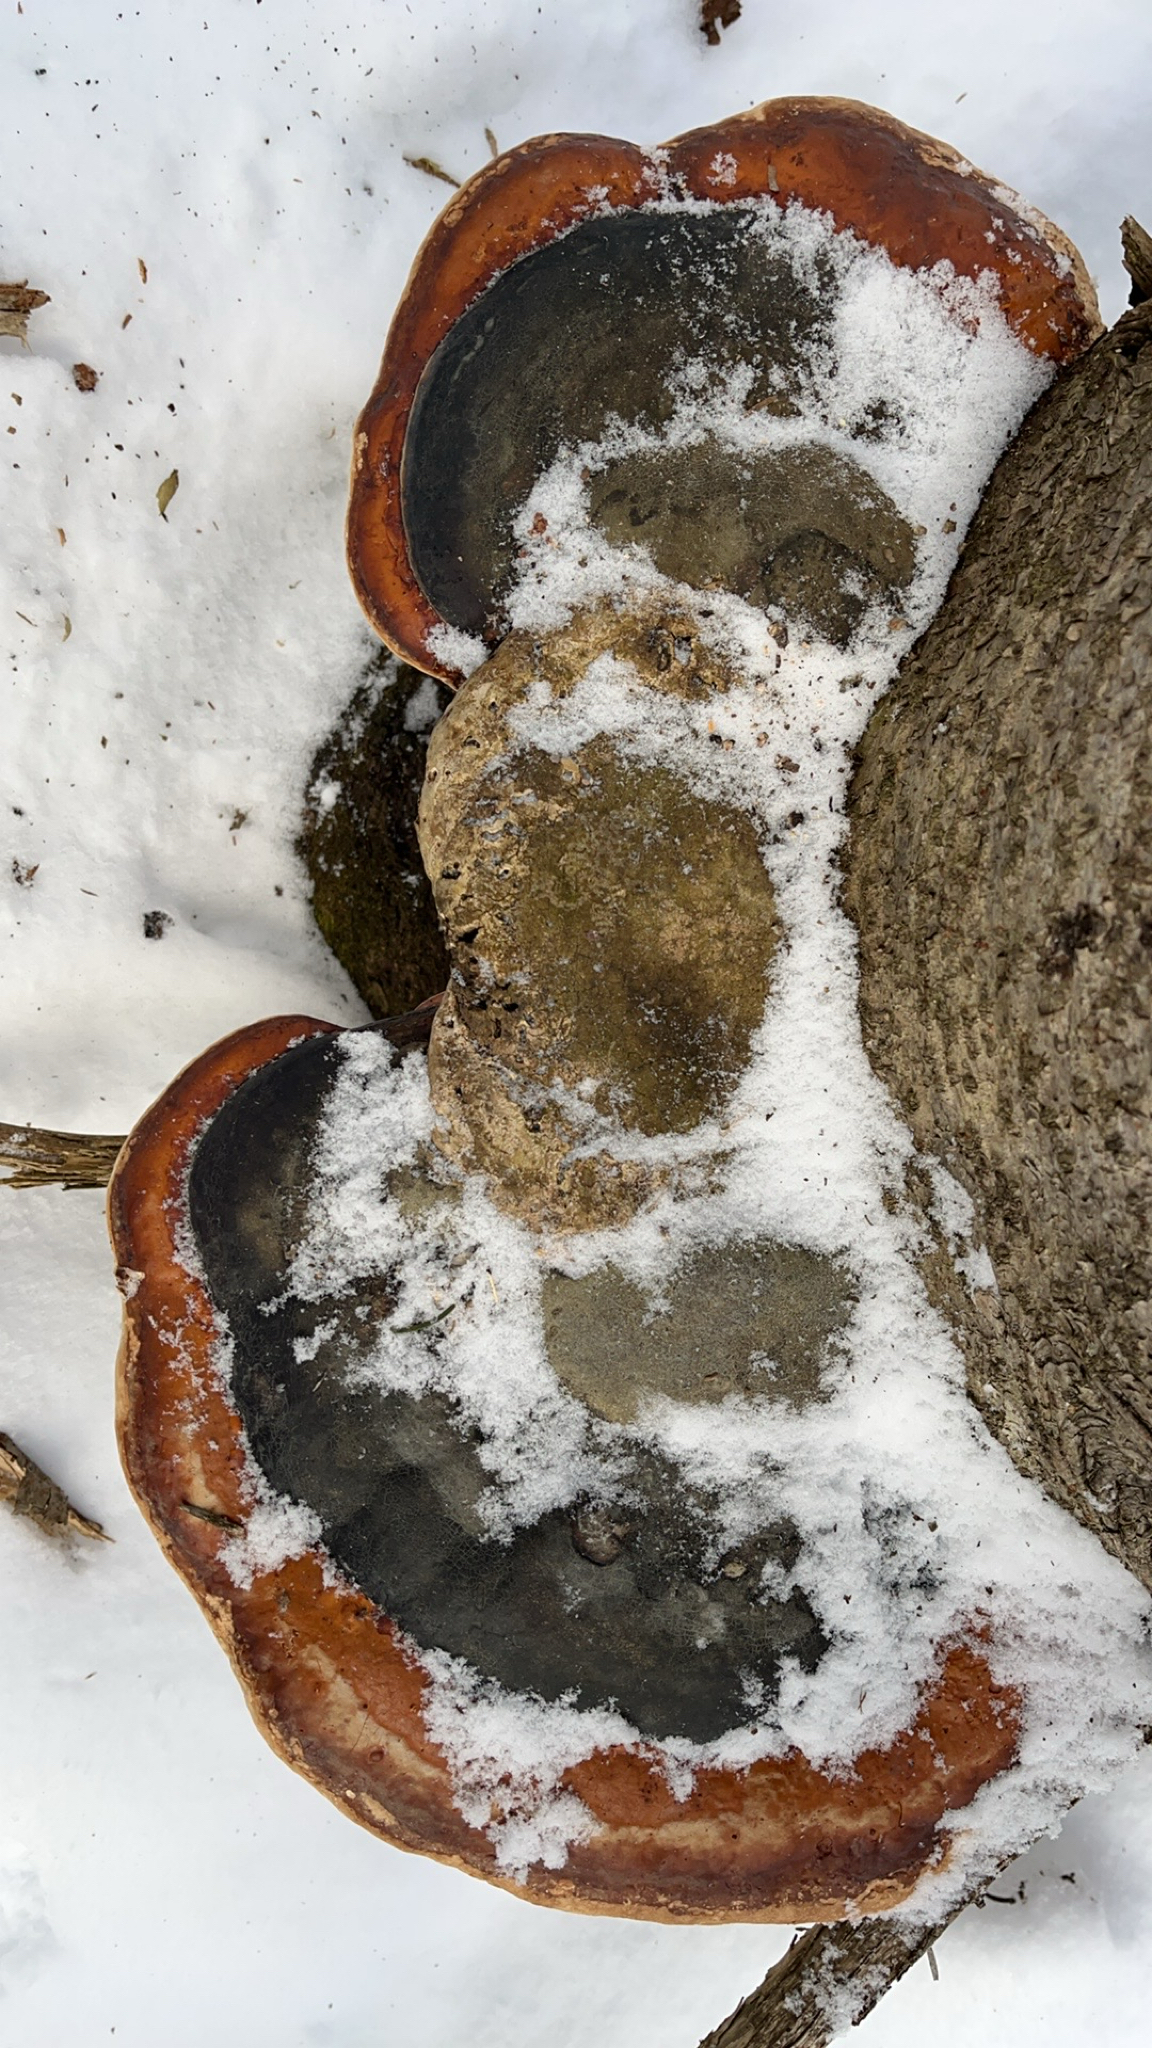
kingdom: Fungi
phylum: Basidiomycota
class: Agaricomycetes
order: Polyporales
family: Fomitopsidaceae
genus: Fomitopsis
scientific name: Fomitopsis mounceae
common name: Northern red belt
